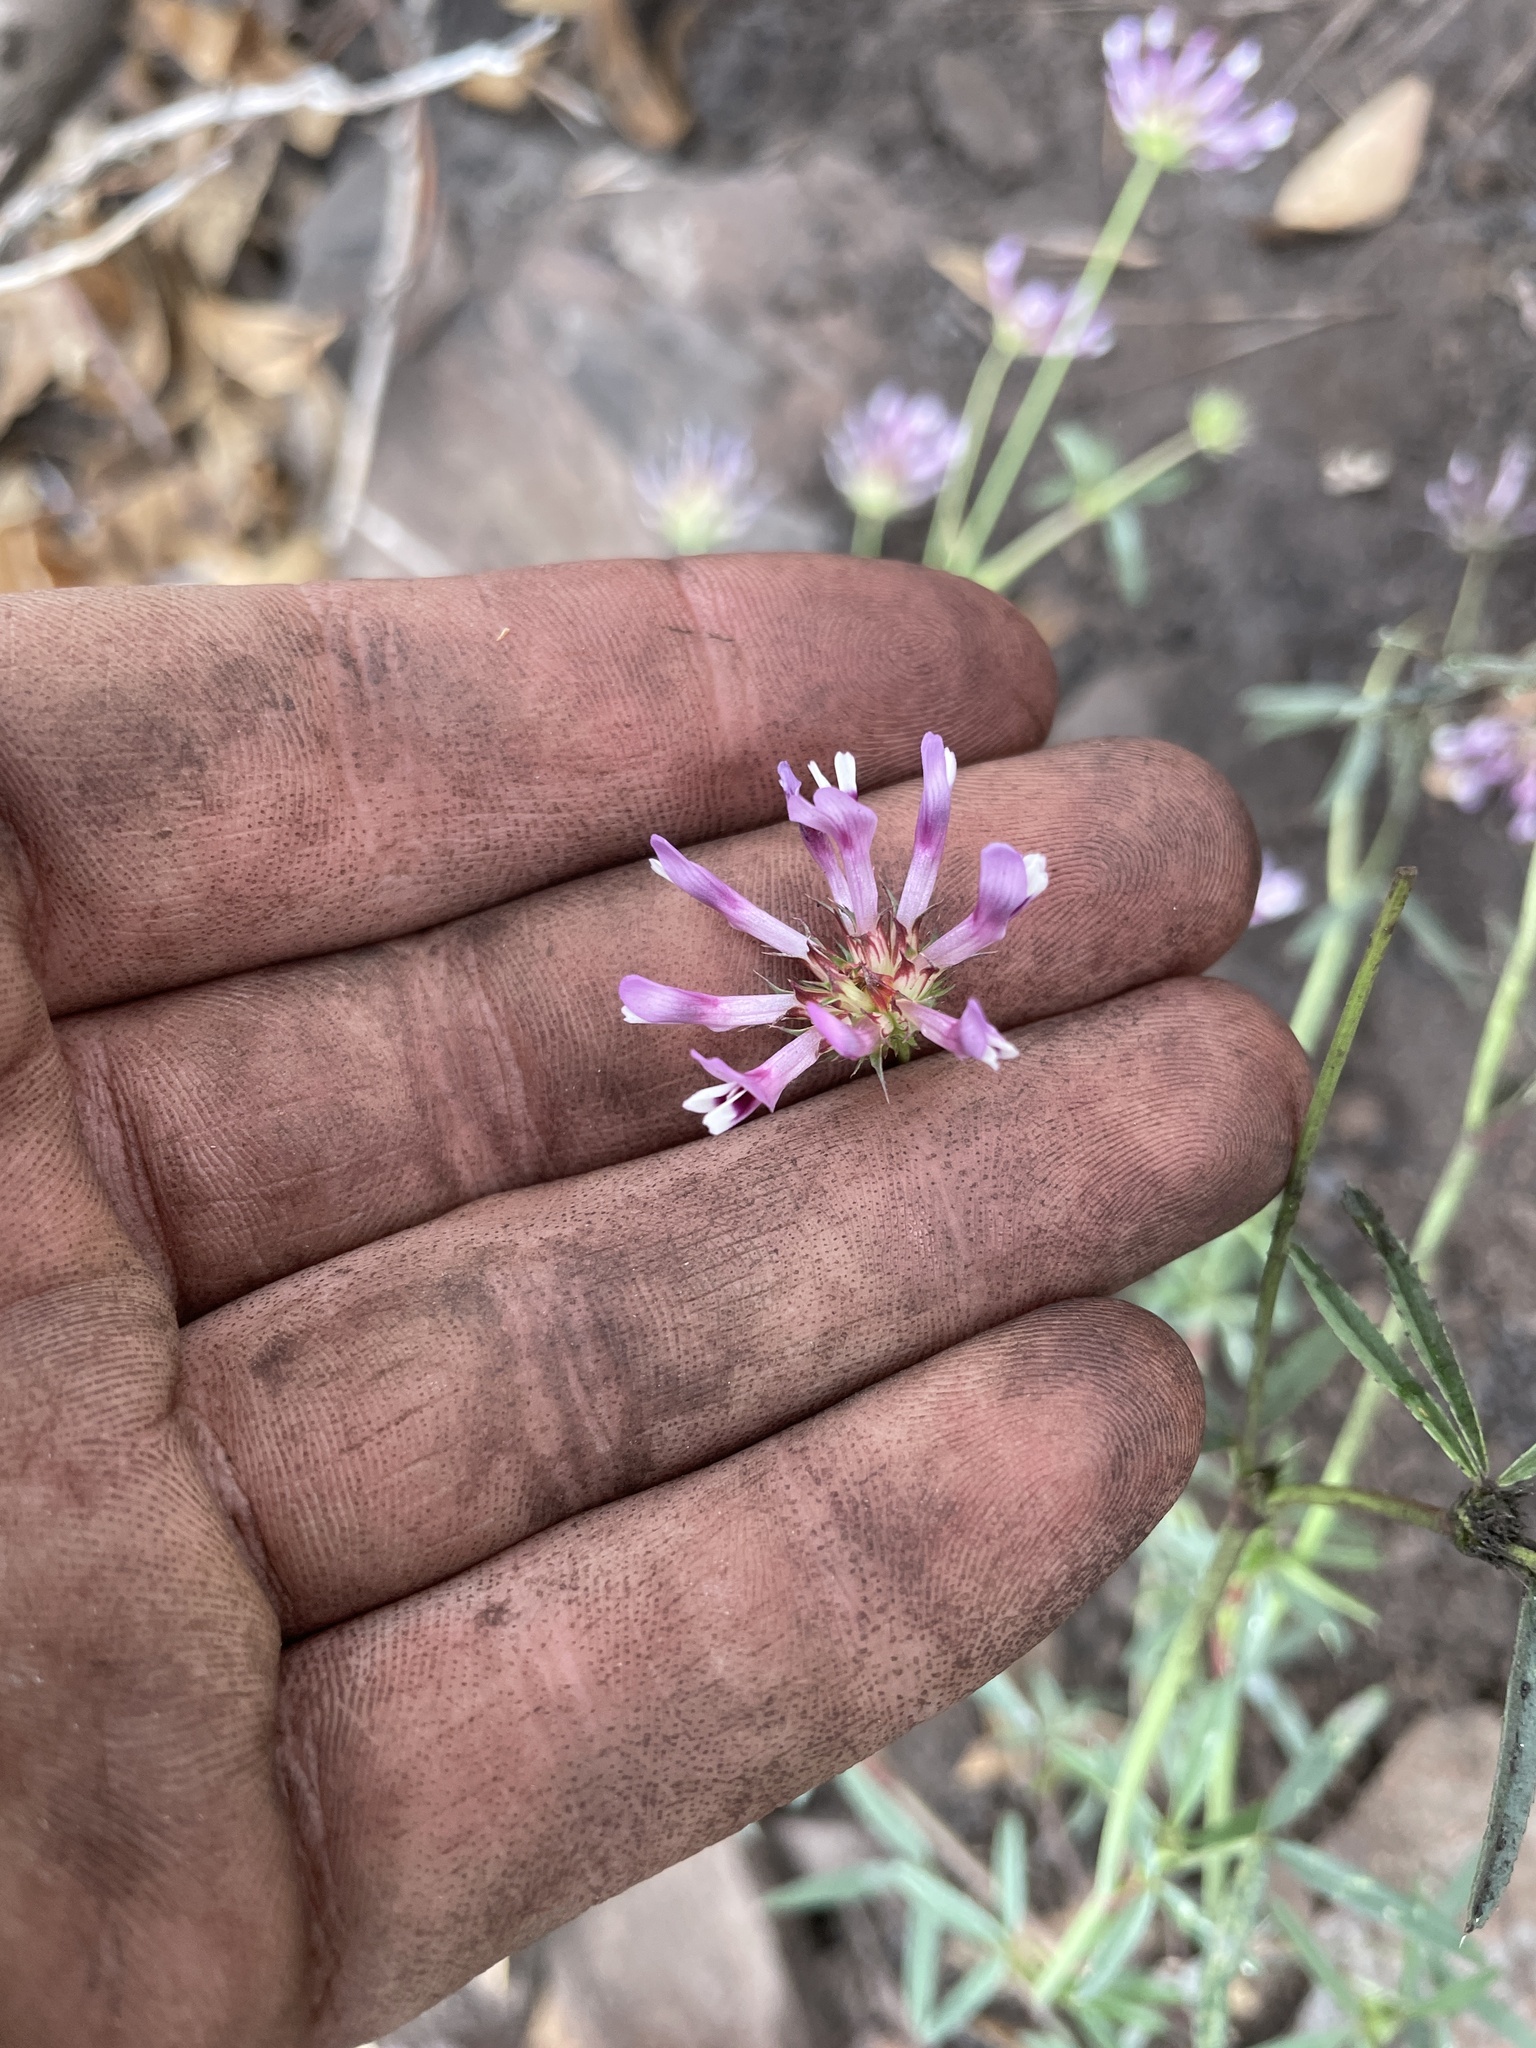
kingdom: Plantae
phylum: Tracheophyta
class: Magnoliopsida
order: Fabales
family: Fabaceae
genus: Trifolium
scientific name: Trifolium willdenovii
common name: Tomcat clover
